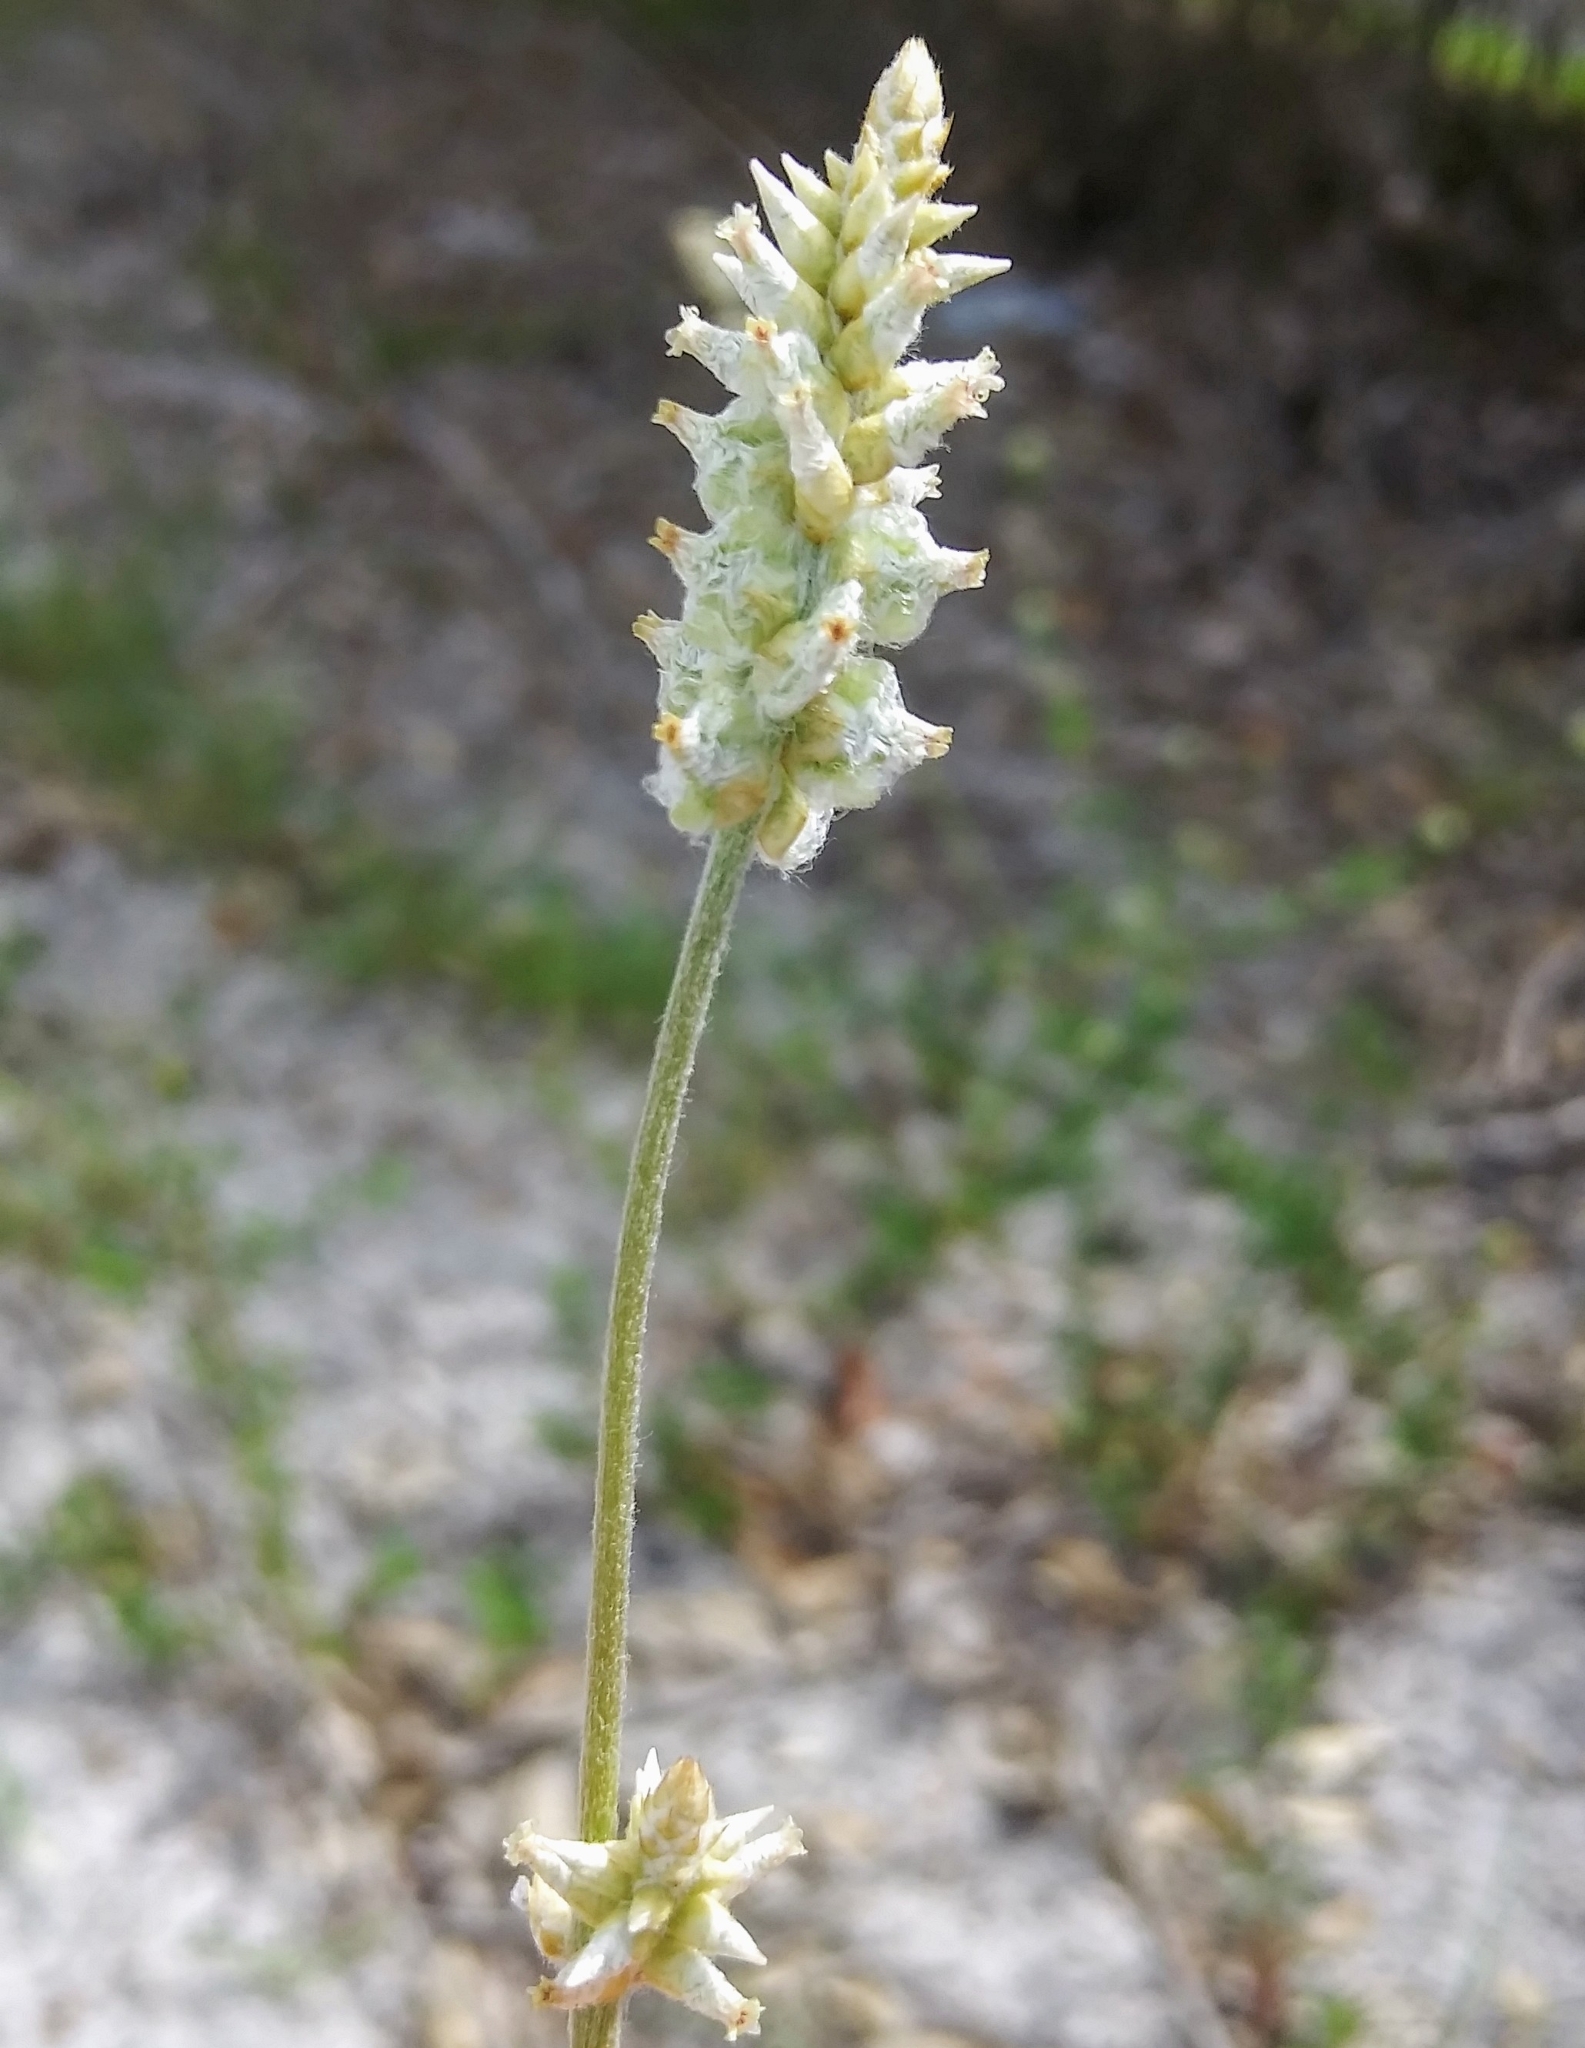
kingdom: Plantae
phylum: Tracheophyta
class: Magnoliopsida
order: Caryophyllales
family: Amaranthaceae
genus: Froelichia
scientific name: Froelichia floridana
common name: Florida snake-cotton
